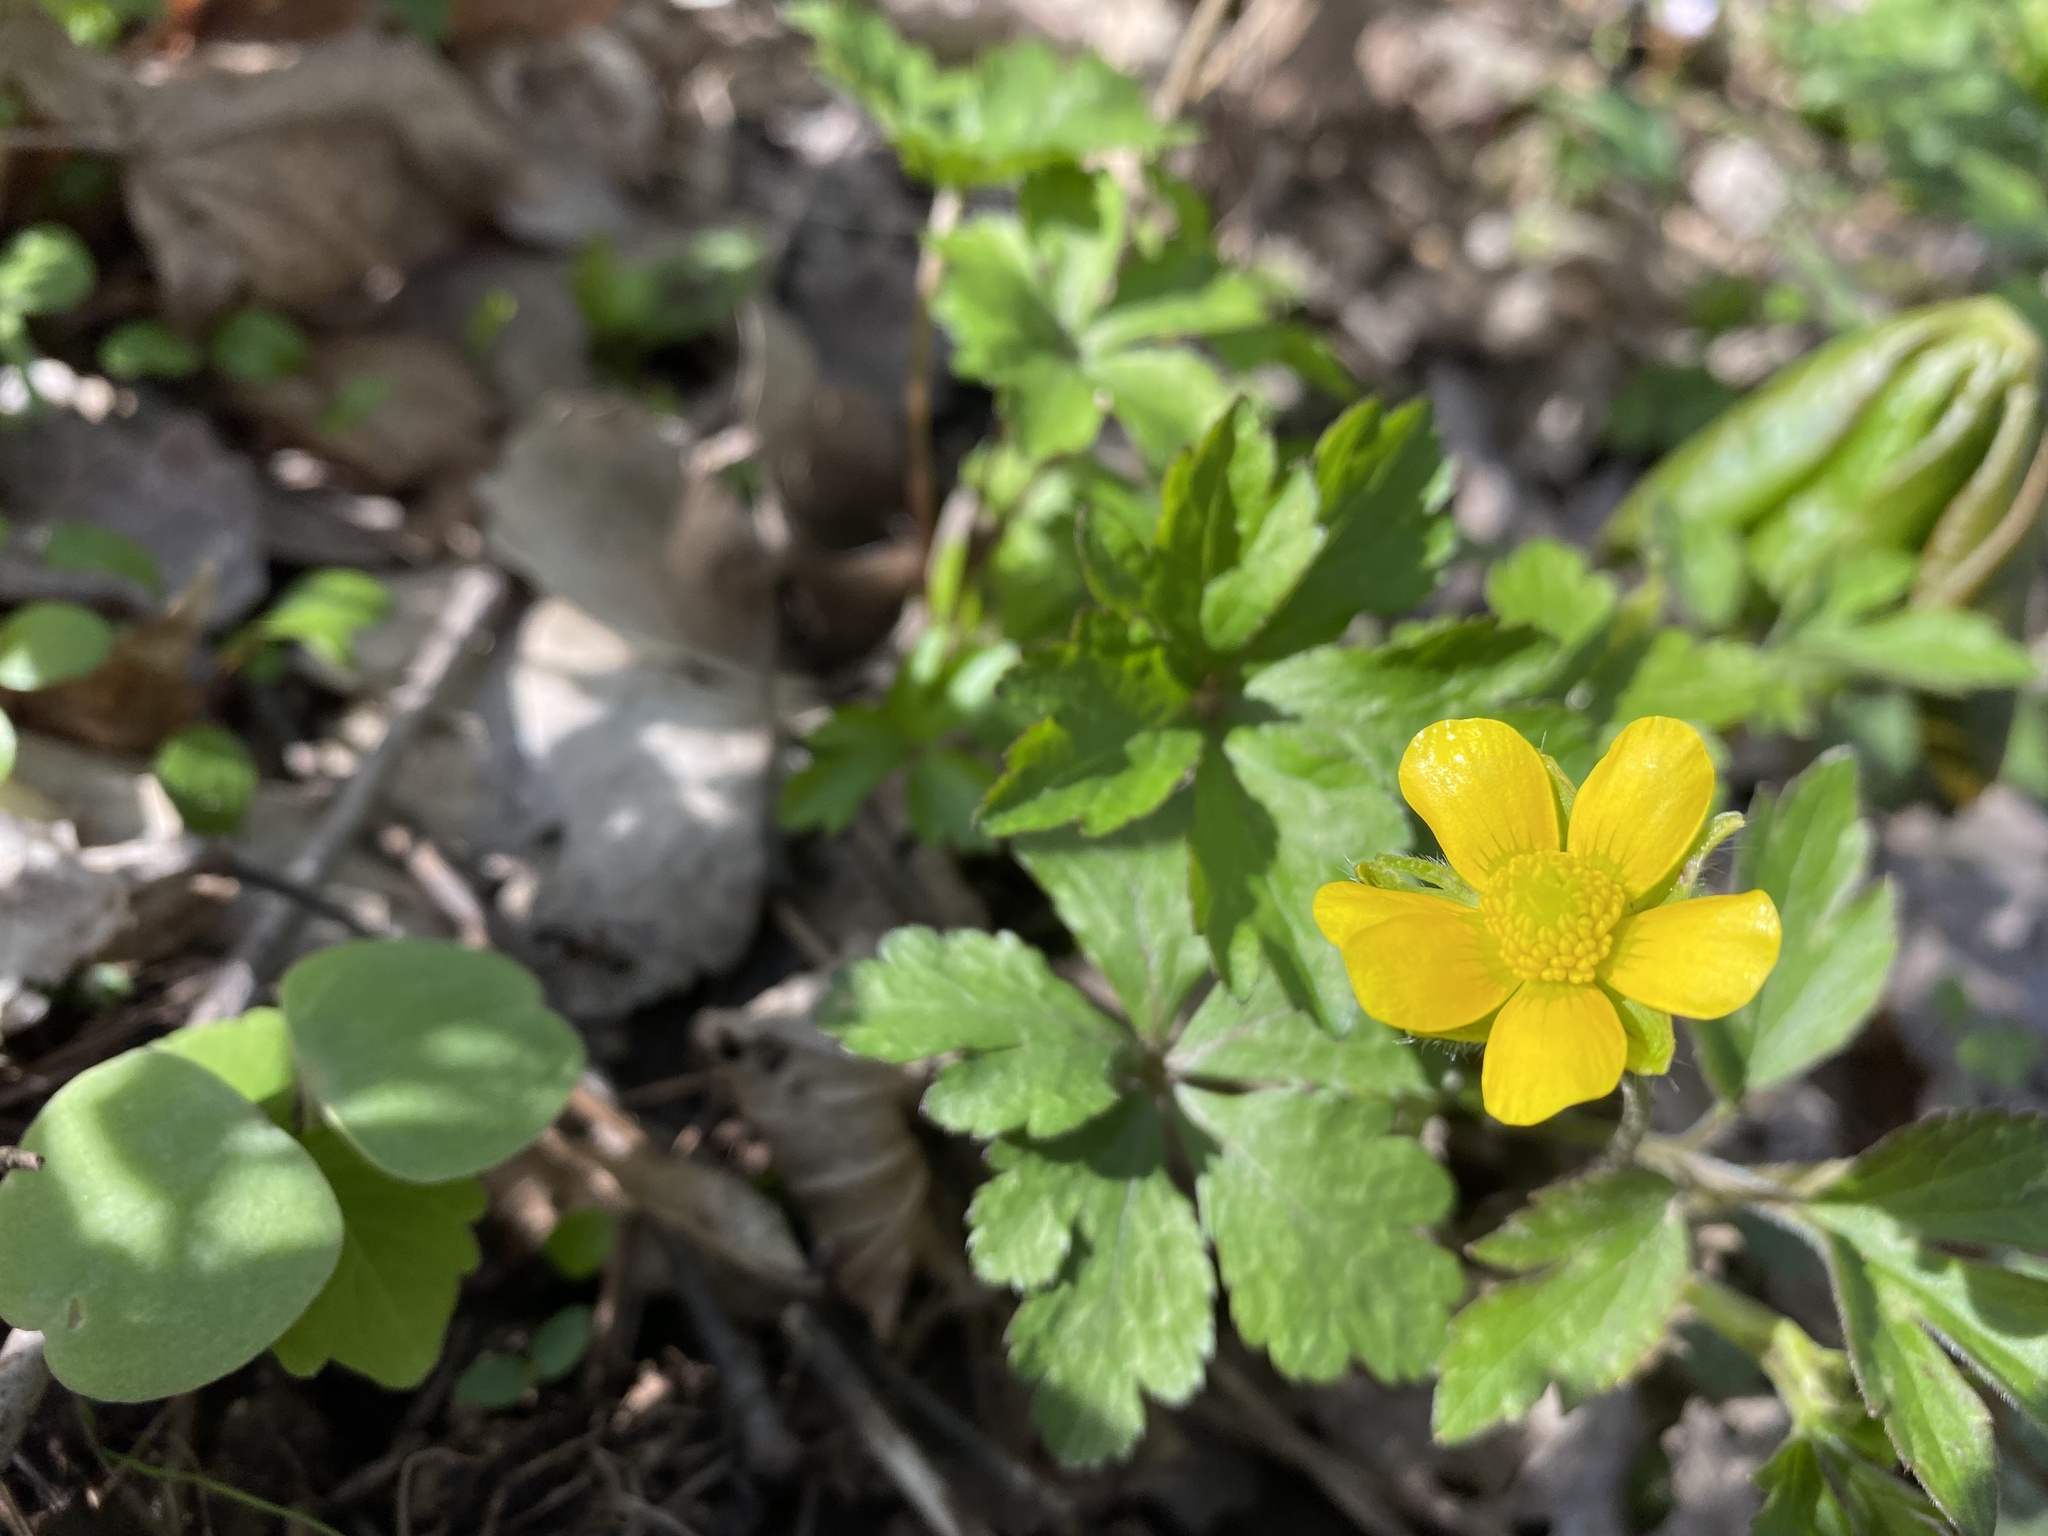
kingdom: Plantae
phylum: Tracheophyta
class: Magnoliopsida
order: Ranunculales
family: Ranunculaceae
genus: Ranunculus
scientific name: Ranunculus hispidus
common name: Bristly buttercup
